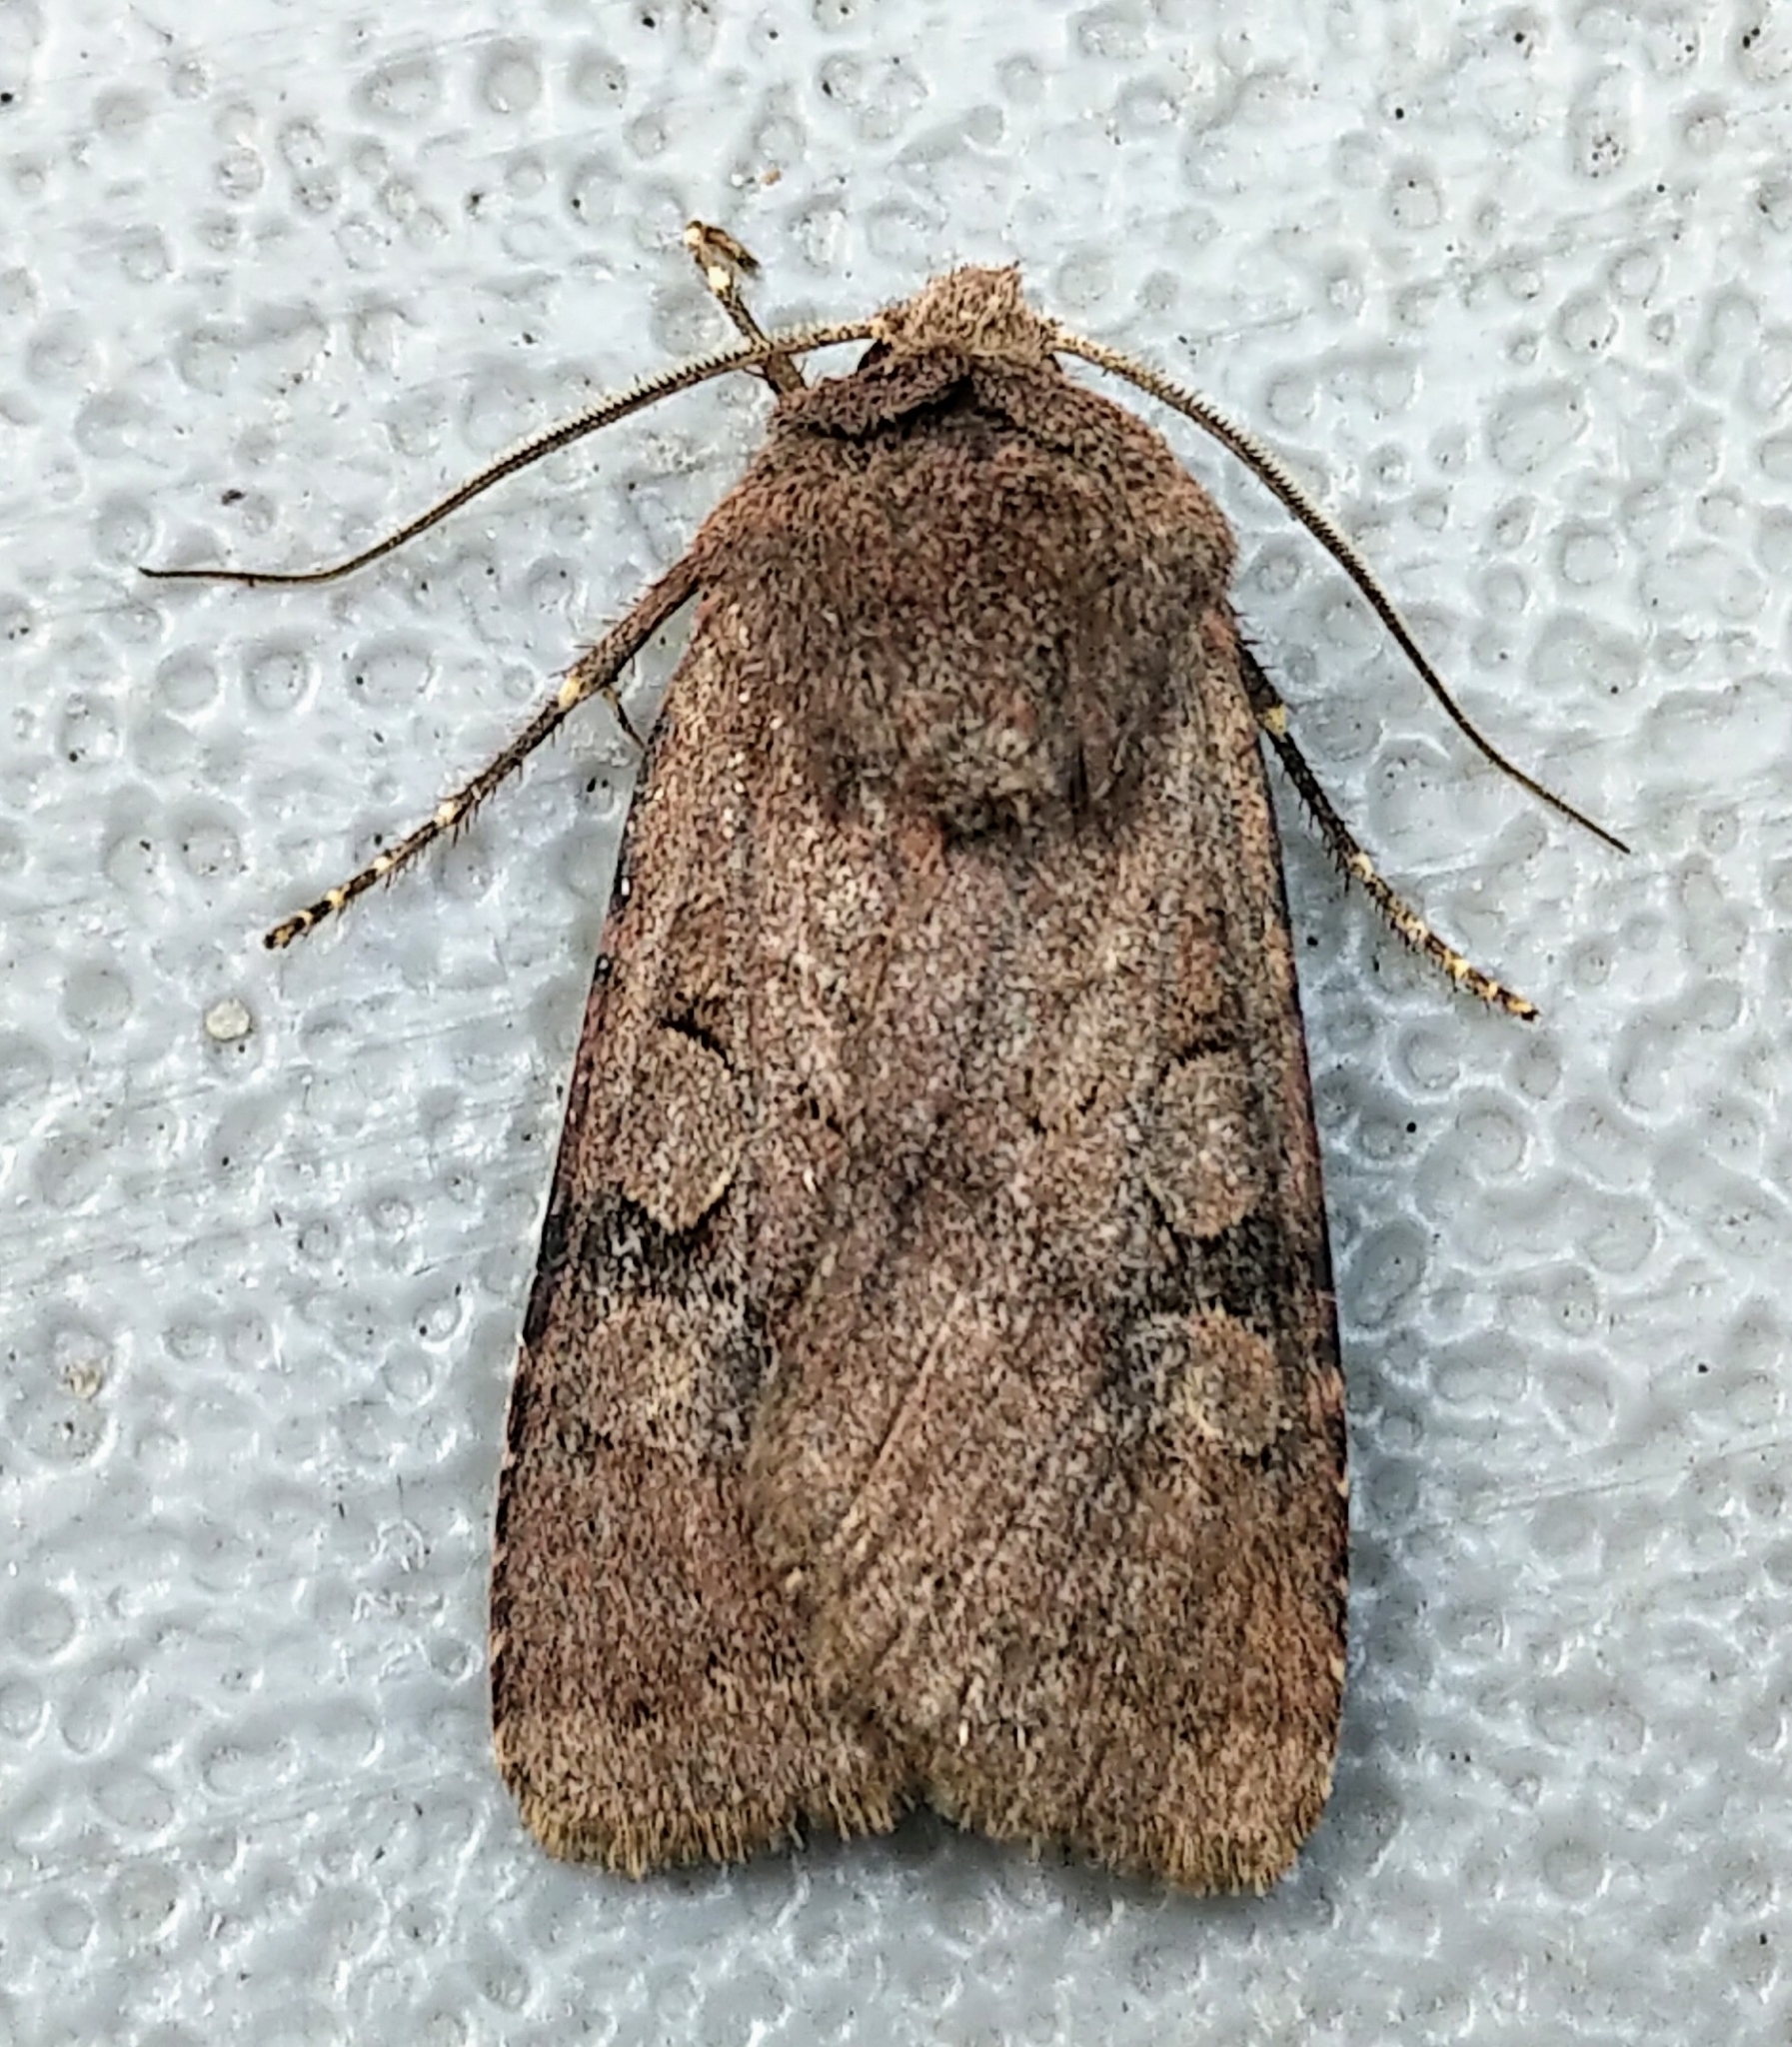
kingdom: Animalia
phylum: Arthropoda
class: Insecta
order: Lepidoptera
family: Noctuidae
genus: Euxoa
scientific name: Euxoa lewisi
